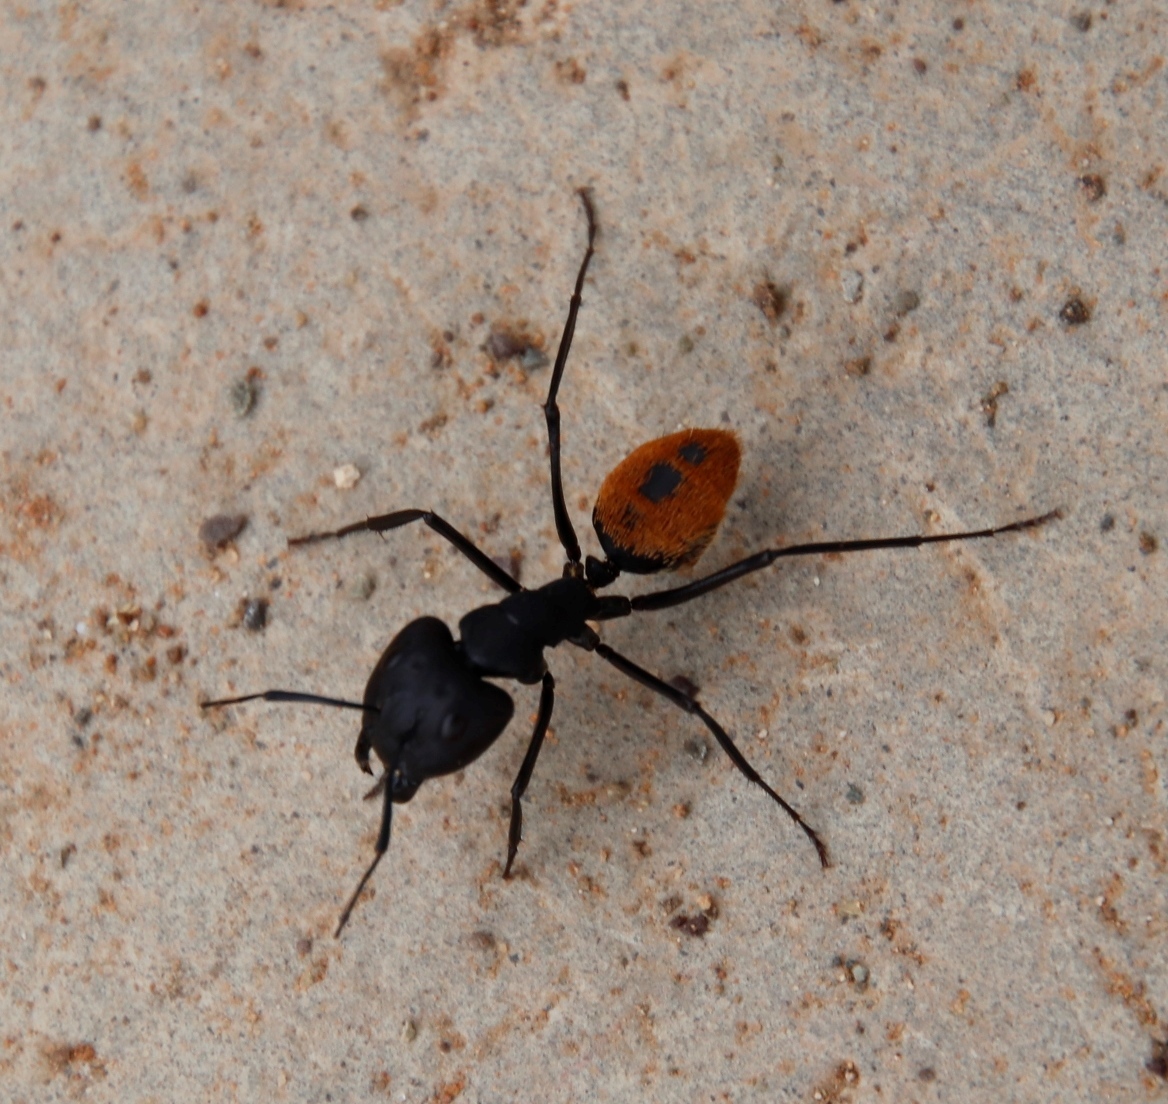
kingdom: Animalia
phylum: Arthropoda
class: Insecta
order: Hymenoptera
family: Formicidae
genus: Camponotus
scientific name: Camponotus fulvopilosus
